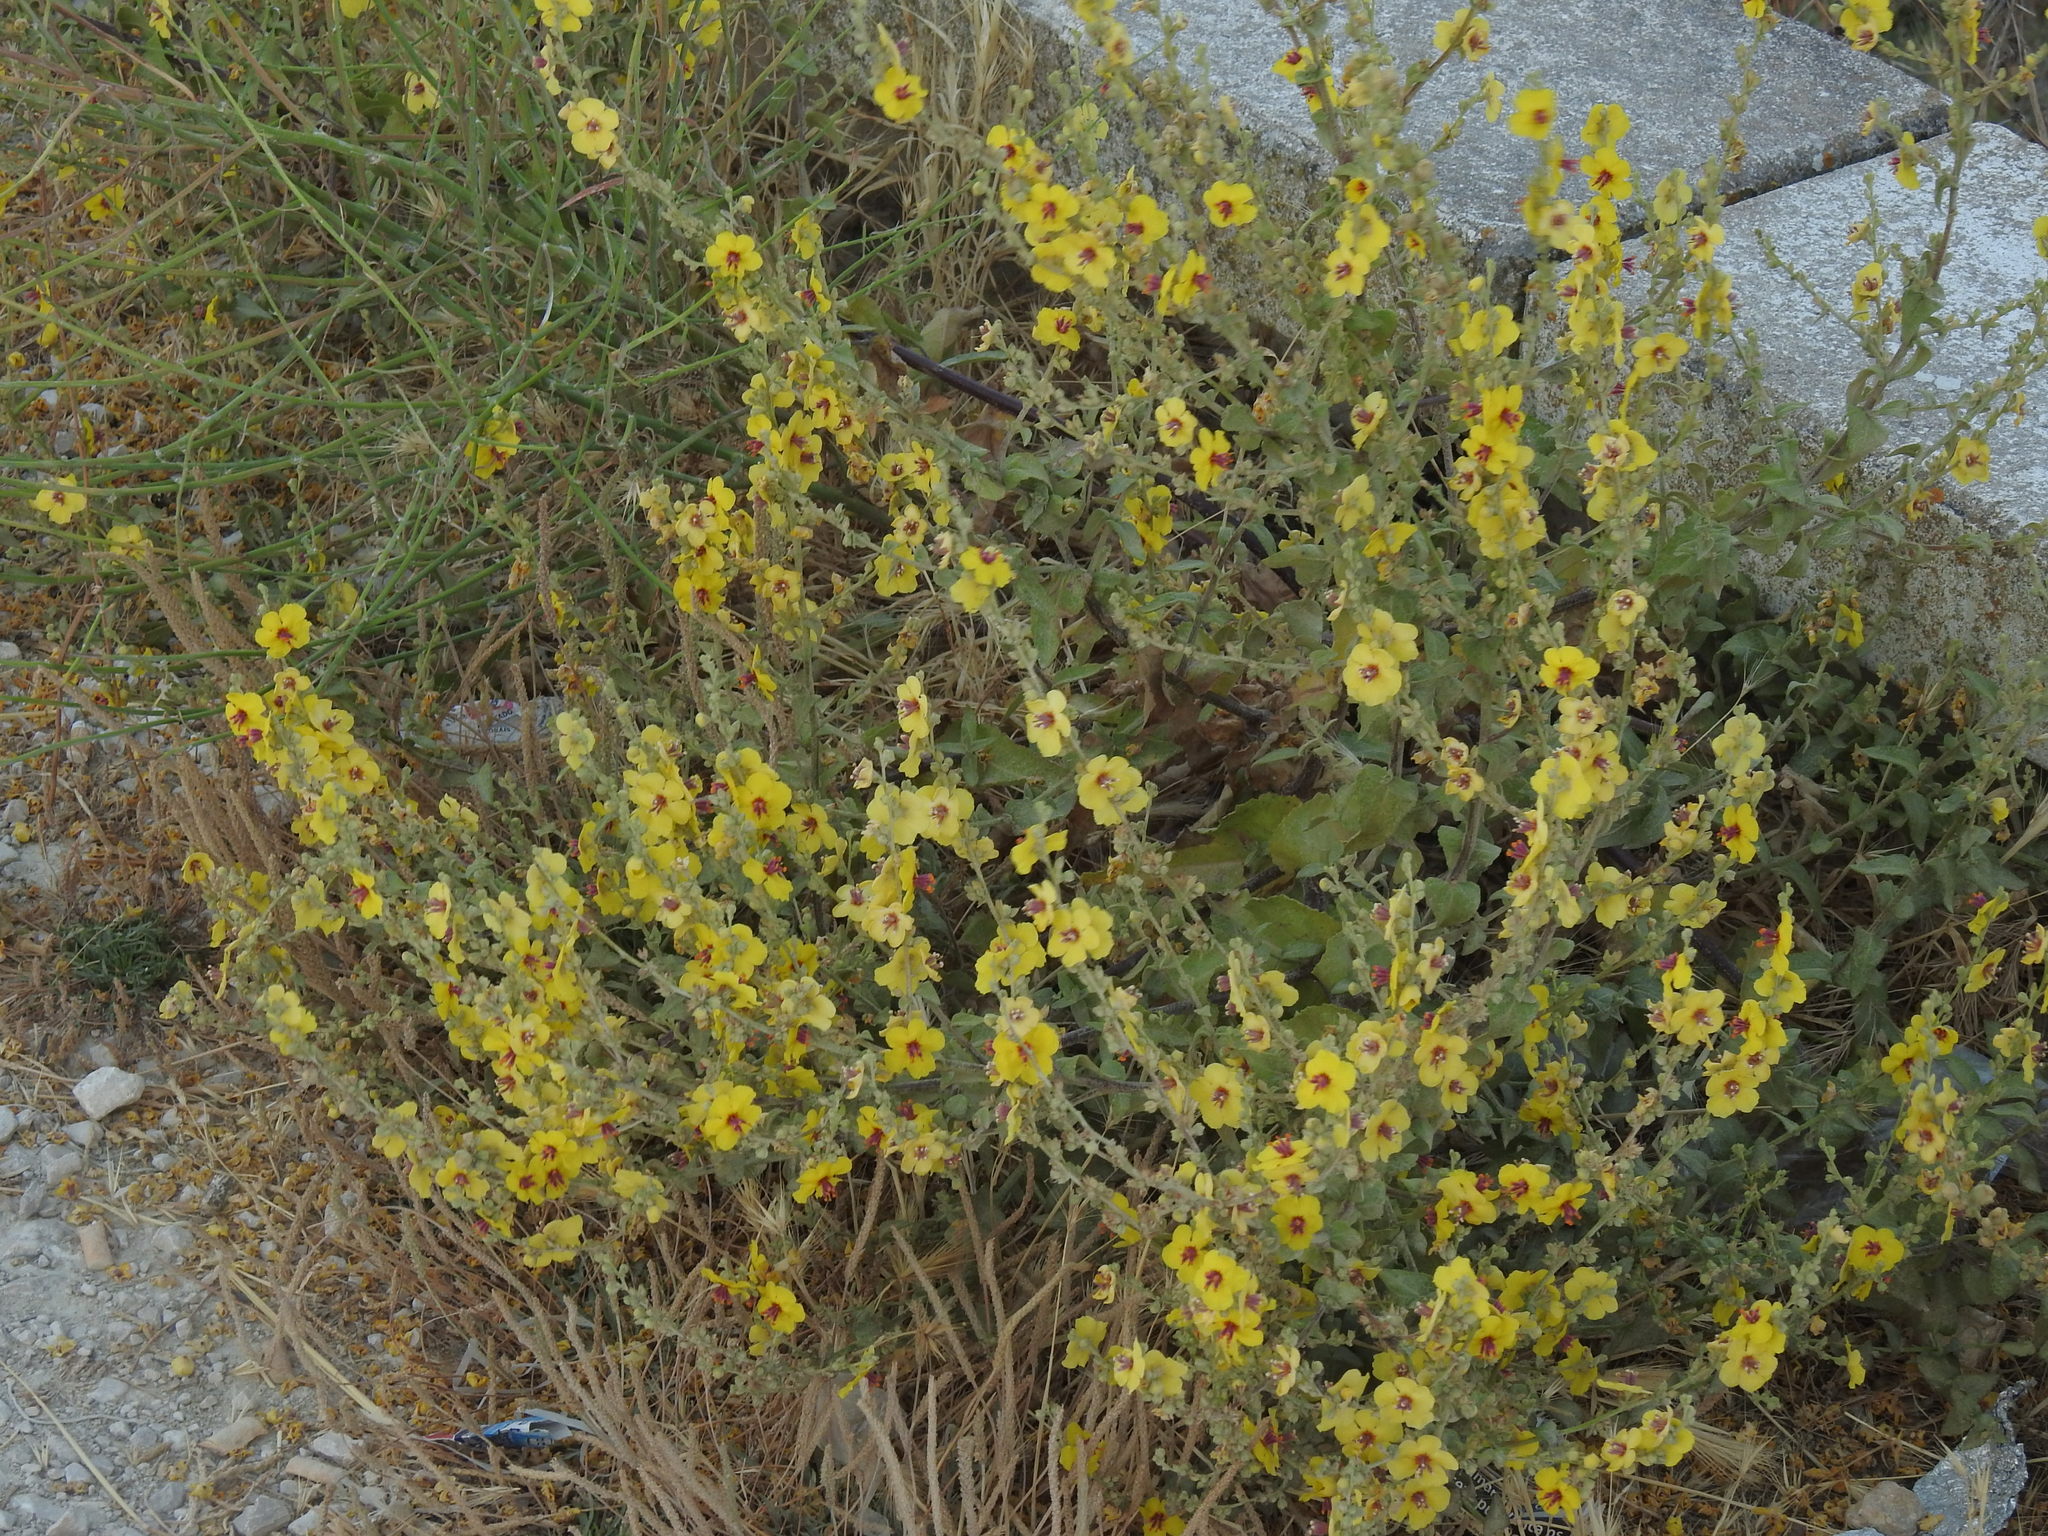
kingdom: Plantae
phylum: Tracheophyta
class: Magnoliopsida
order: Lamiales
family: Scrophulariaceae
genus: Verbascum
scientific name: Verbascum sinuatum
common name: Wavyleaf mullein
